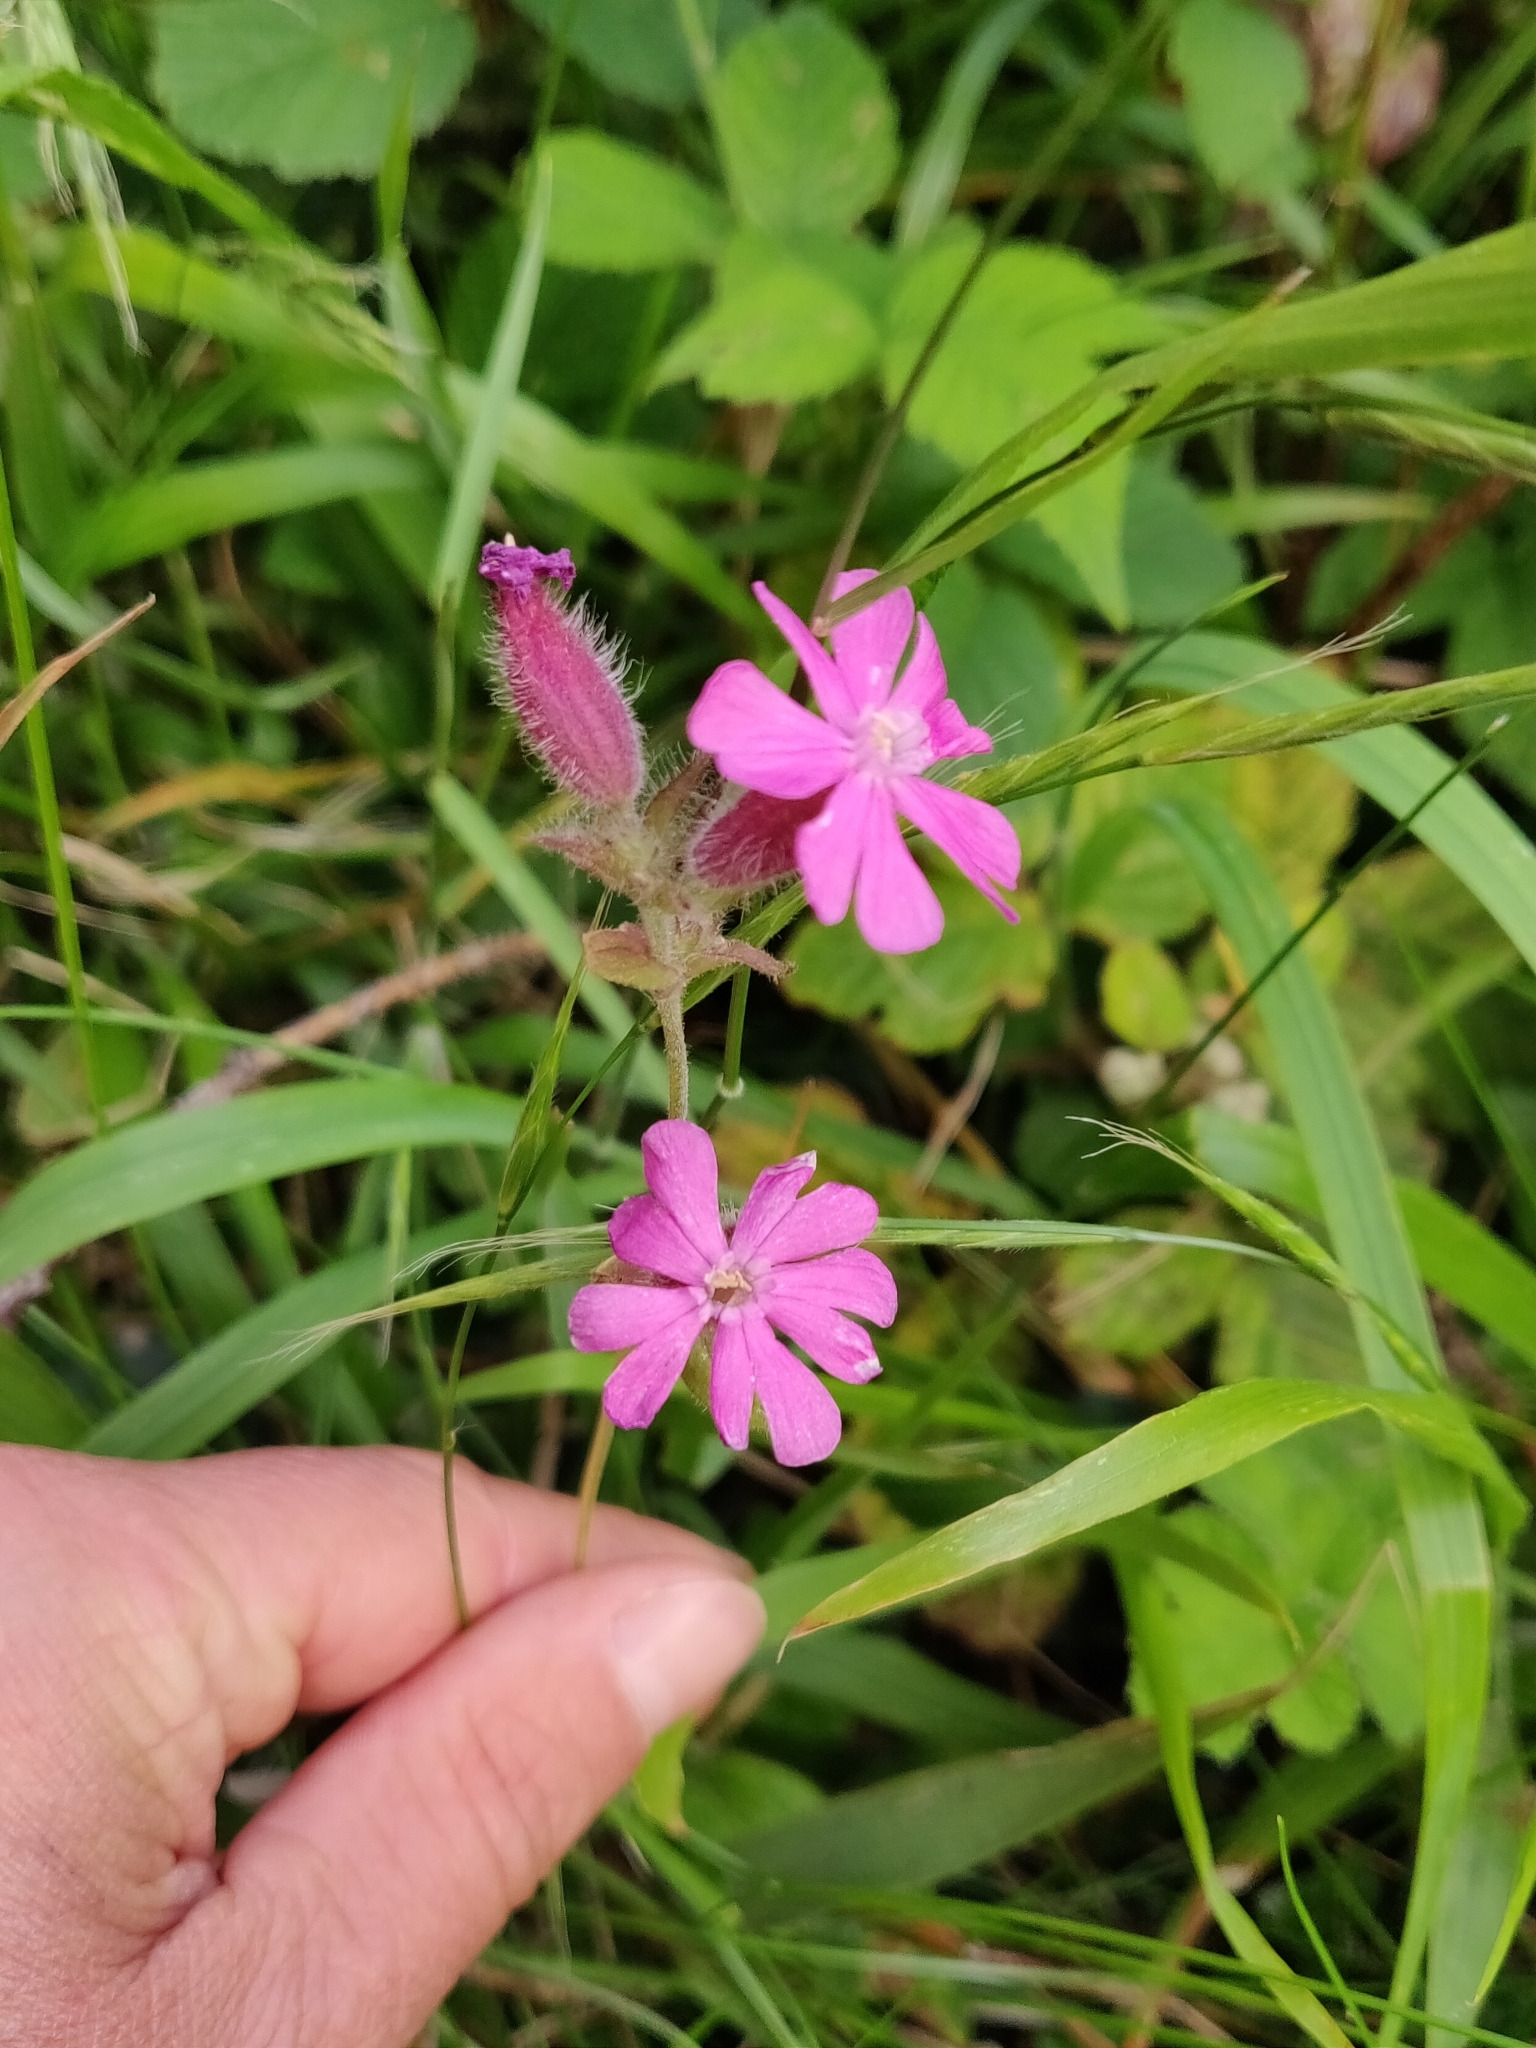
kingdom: Plantae
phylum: Tracheophyta
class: Magnoliopsida
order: Caryophyllales
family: Caryophyllaceae
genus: Silene
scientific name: Silene dioica
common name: Red campion
